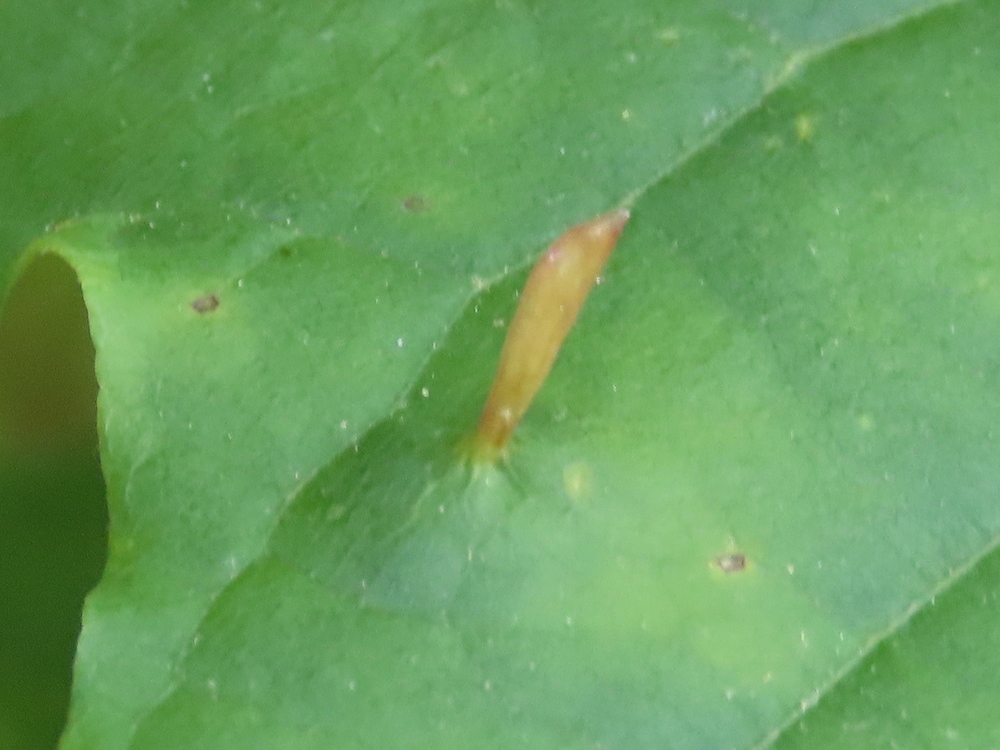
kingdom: Animalia
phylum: Arthropoda
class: Arachnida
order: Trombidiformes
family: Eriophyidae
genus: Vasates
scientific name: Vasates aceriscrumena
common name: Maple spindle gall mite
